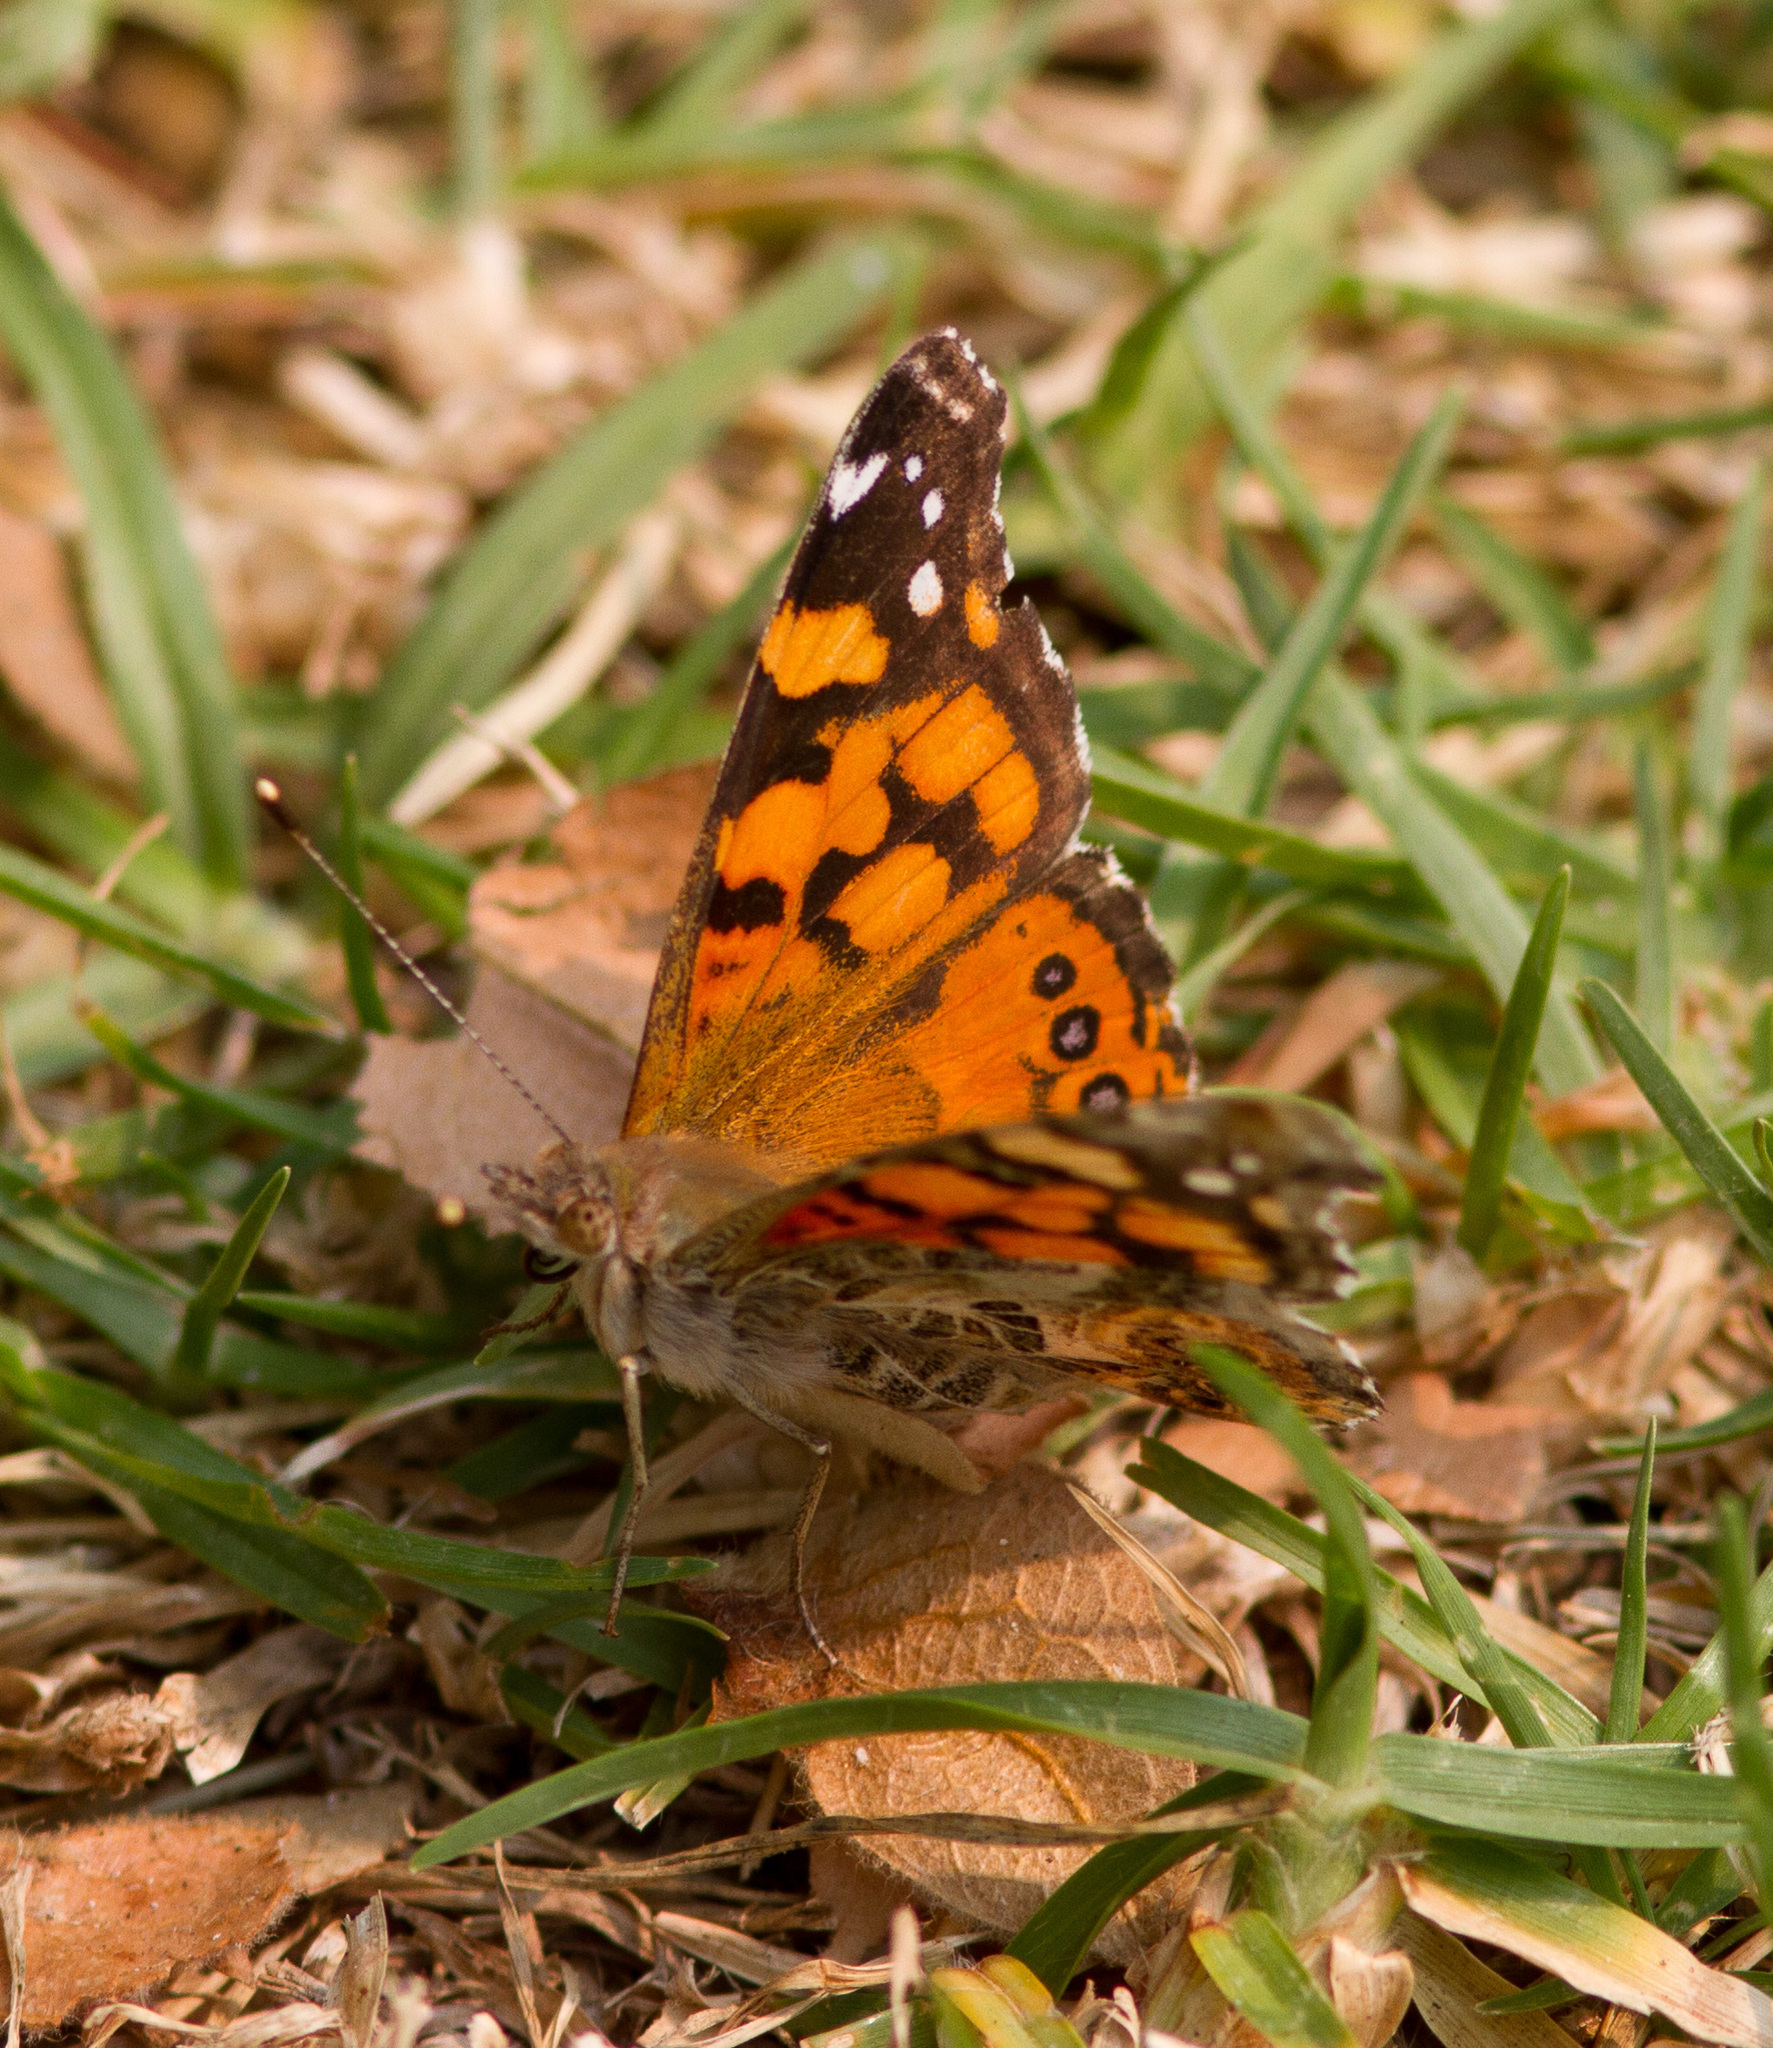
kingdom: Animalia
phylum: Arthropoda
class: Insecta
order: Lepidoptera
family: Nymphalidae
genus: Vanessa
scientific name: Vanessa annabella
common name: West coast lady
